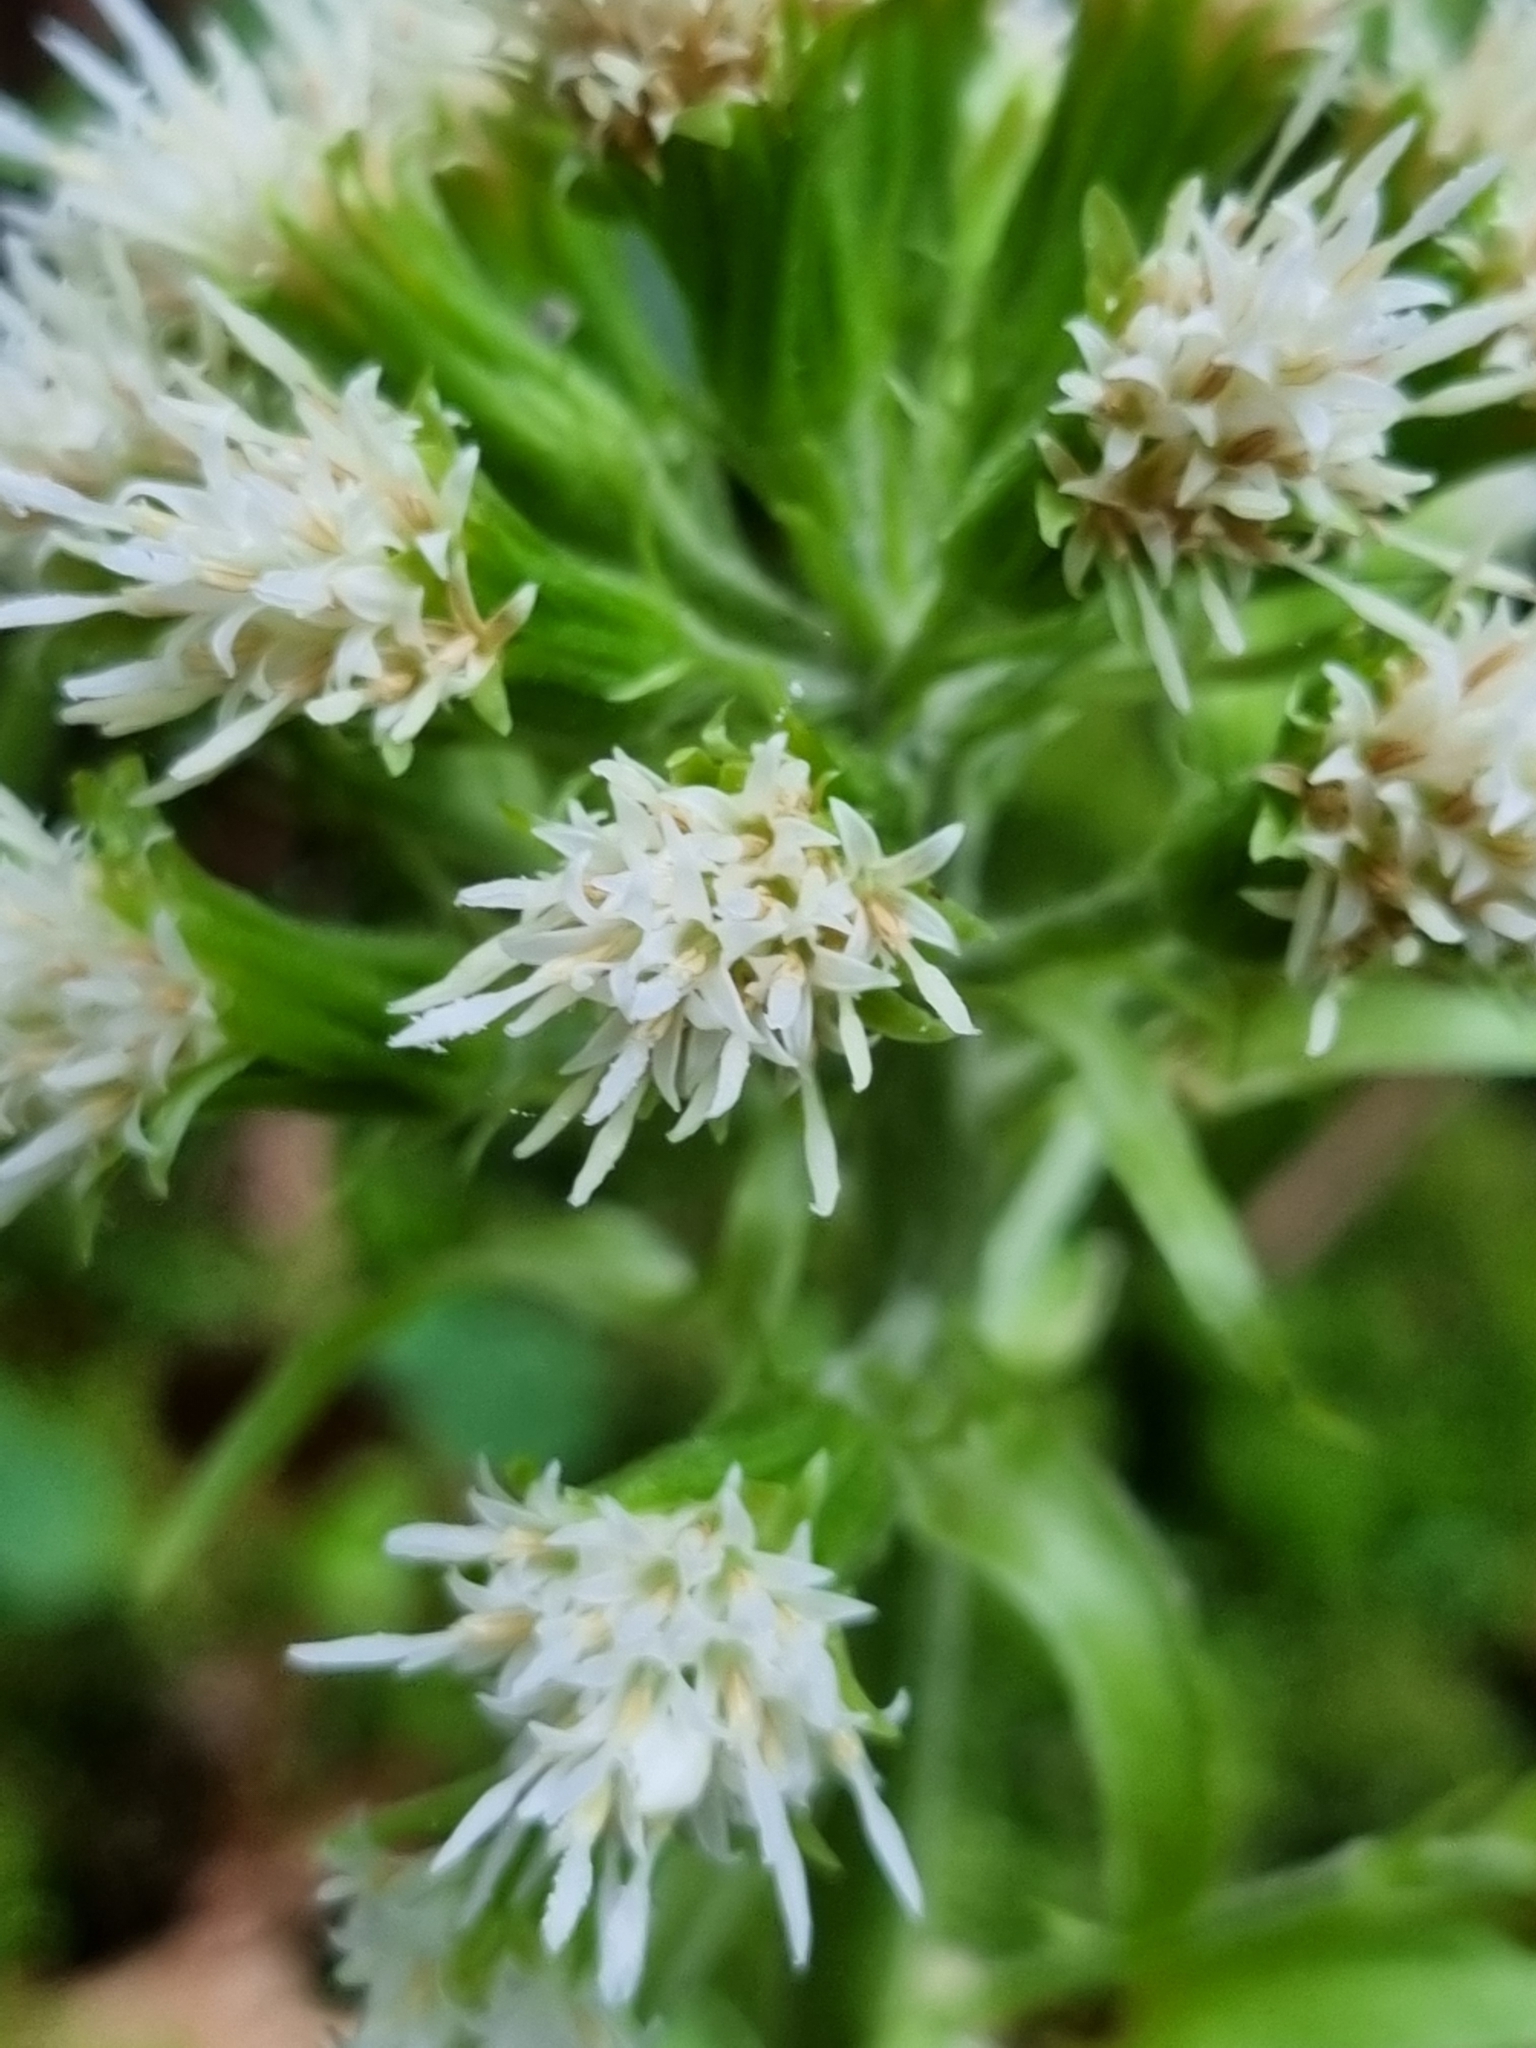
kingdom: Plantae
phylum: Tracheophyta
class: Magnoliopsida
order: Asterales
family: Asteraceae
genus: Petasites
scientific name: Petasites albus
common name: White butterbur
